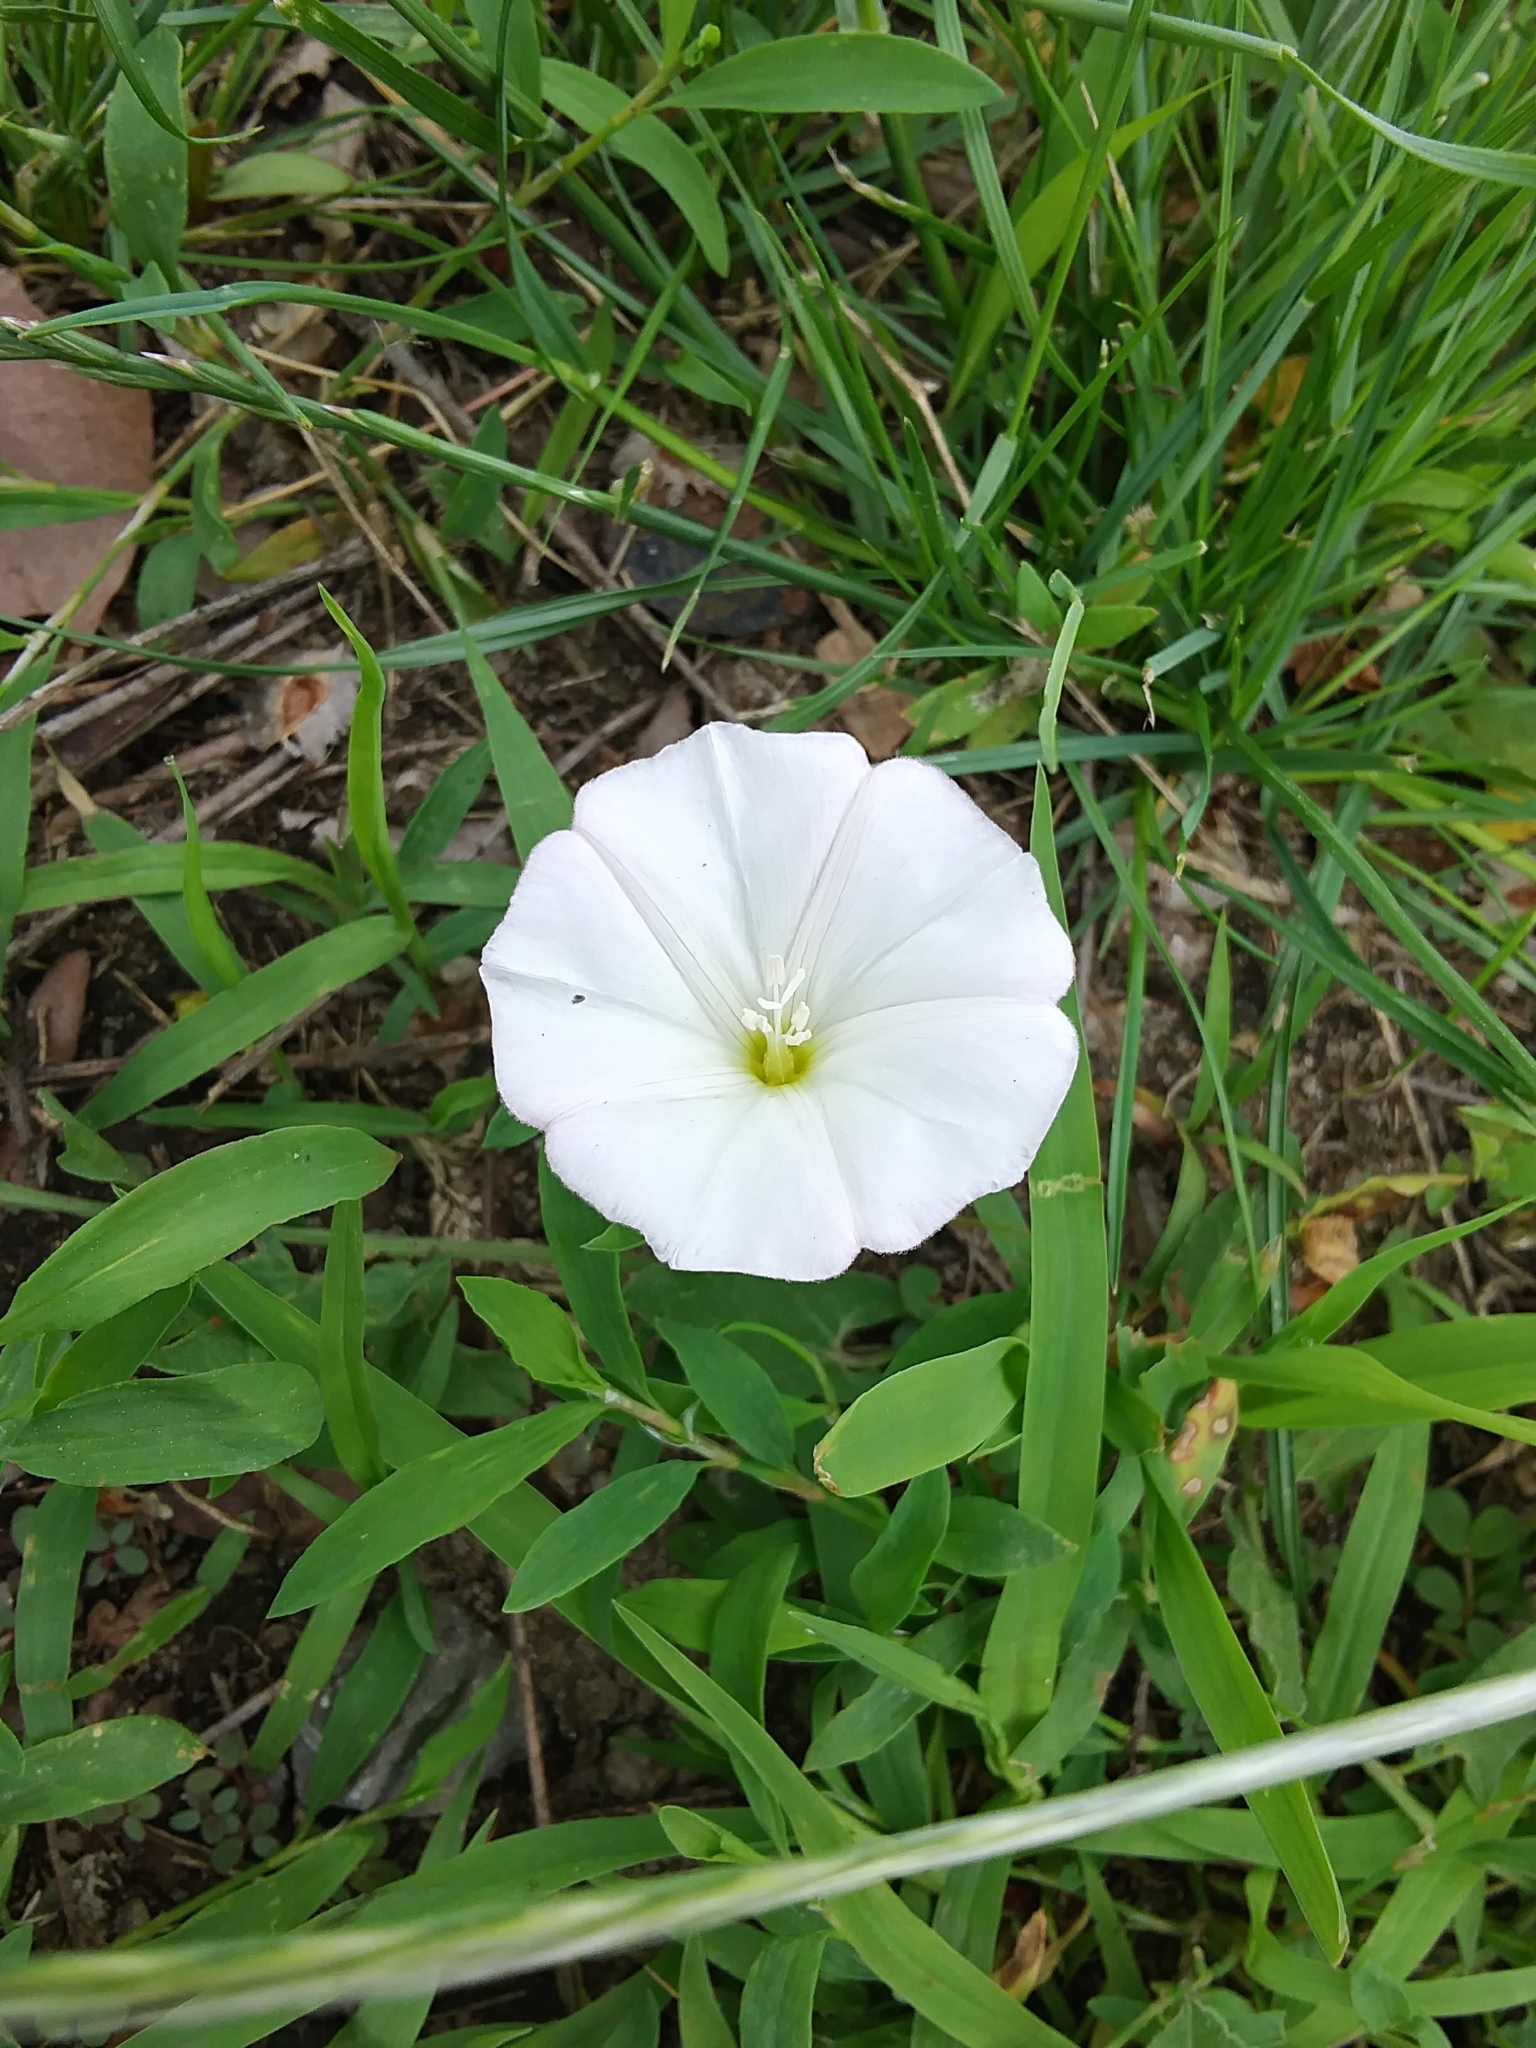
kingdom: Plantae
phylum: Tracheophyta
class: Magnoliopsida
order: Solanales
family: Convolvulaceae
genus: Convolvulus
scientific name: Convolvulus arvensis
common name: Field bindweed
